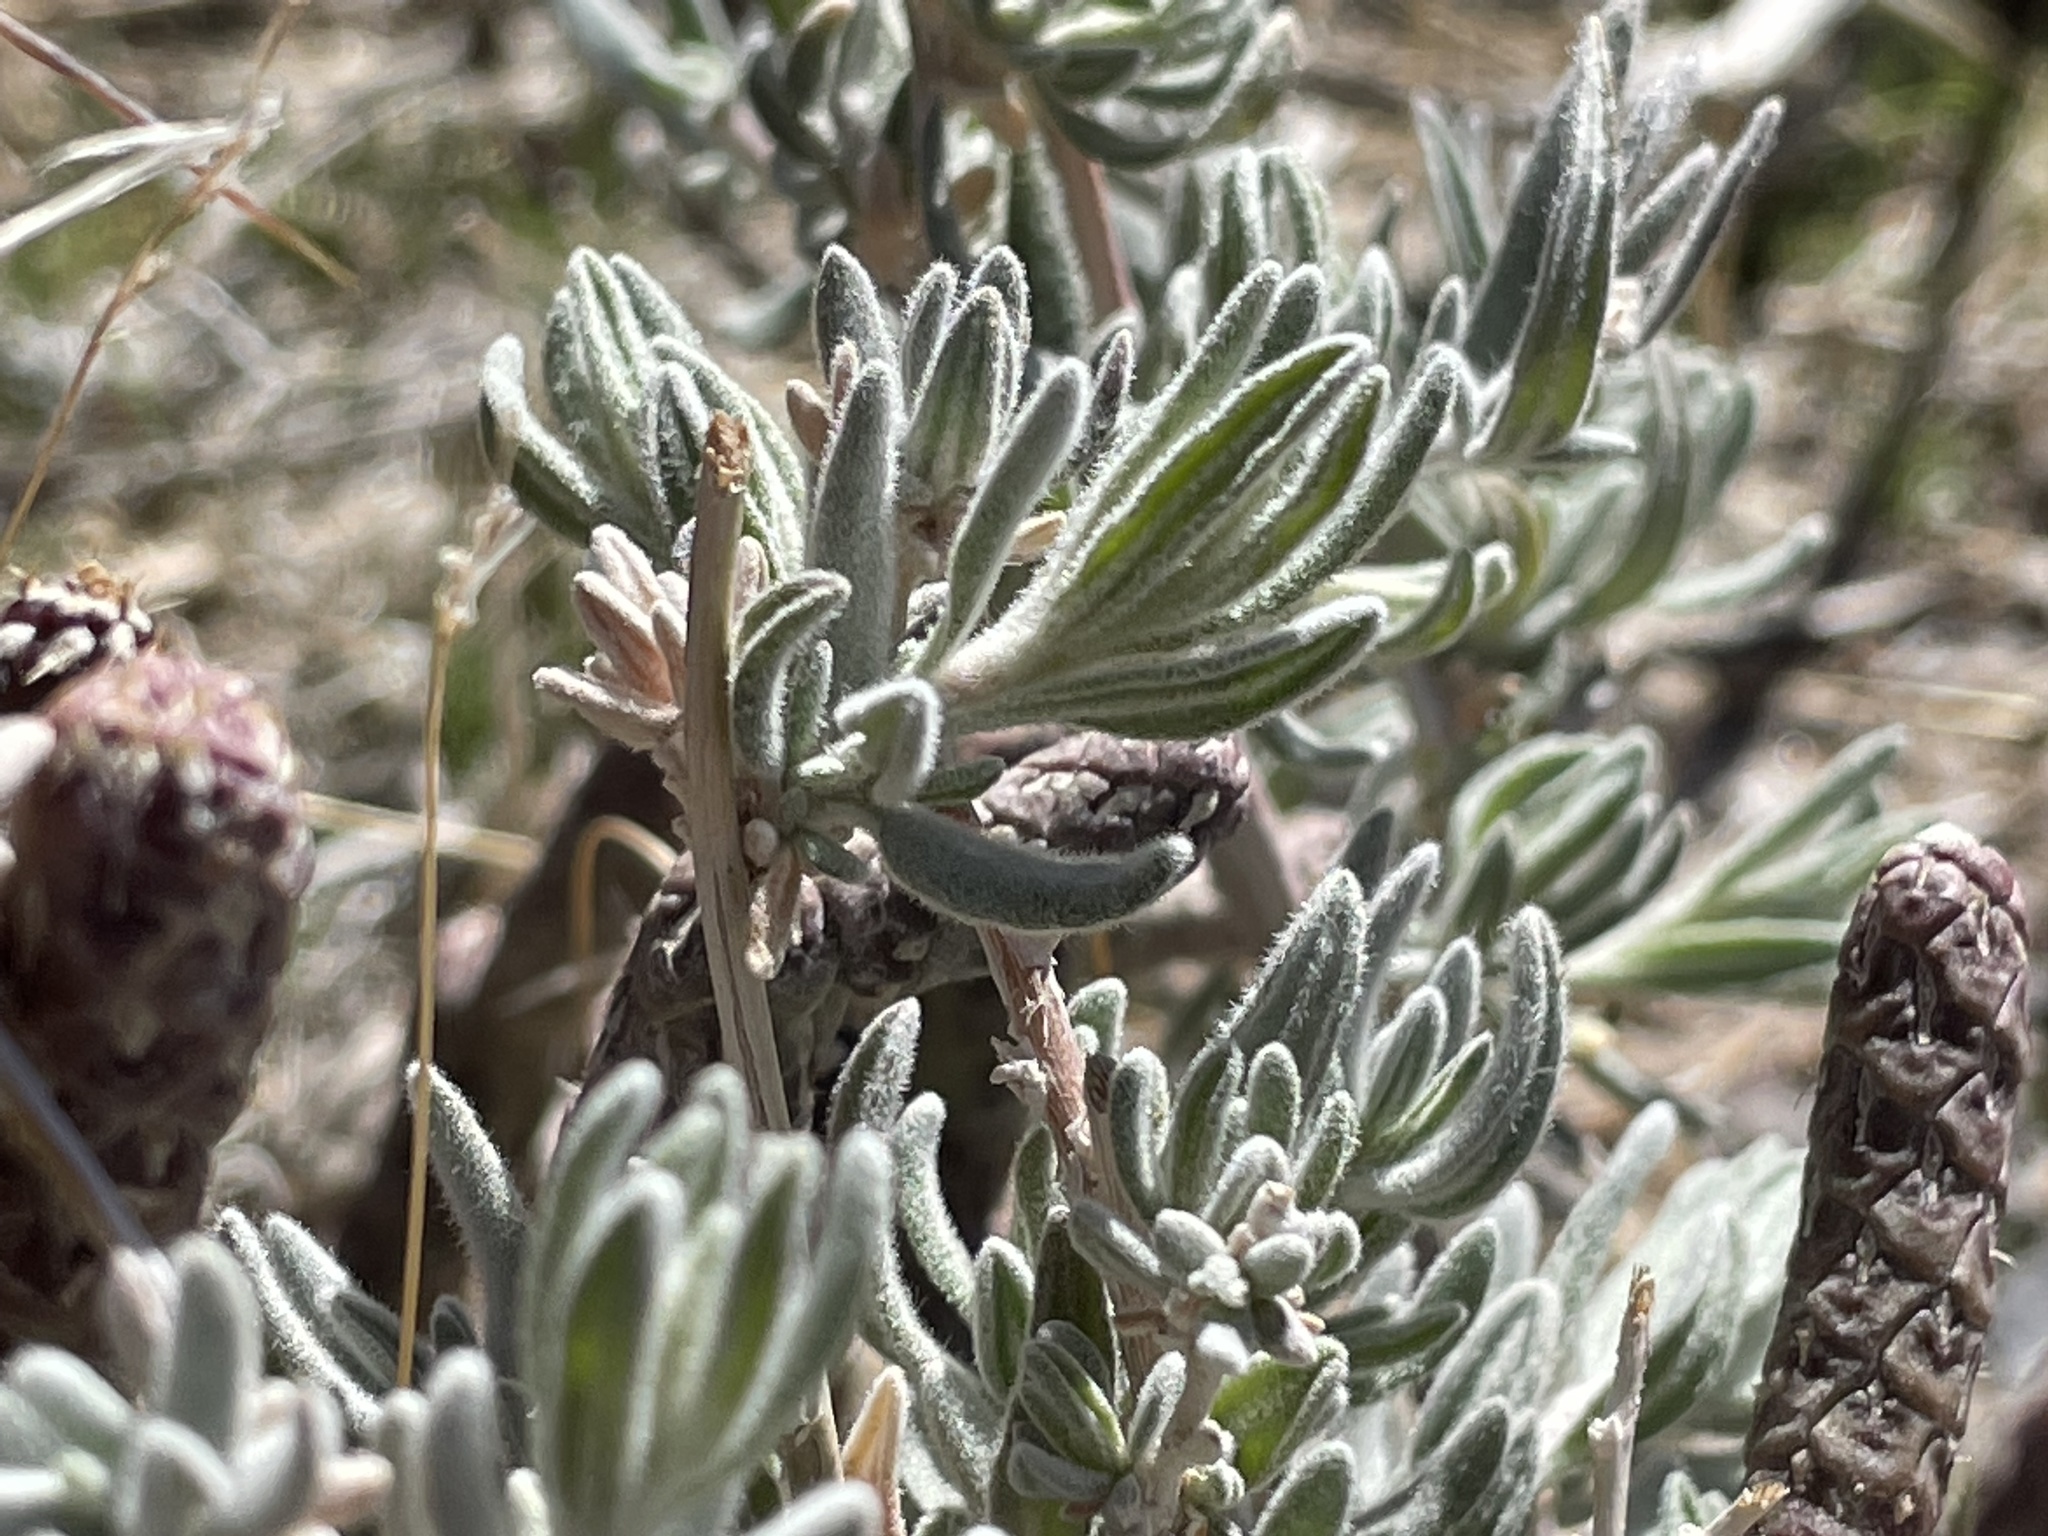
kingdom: Plantae
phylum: Tracheophyta
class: Magnoliopsida
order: Caryophyllales
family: Amaranthaceae
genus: Krascheninnikovia
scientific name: Krascheninnikovia lanata
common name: Winterfat
